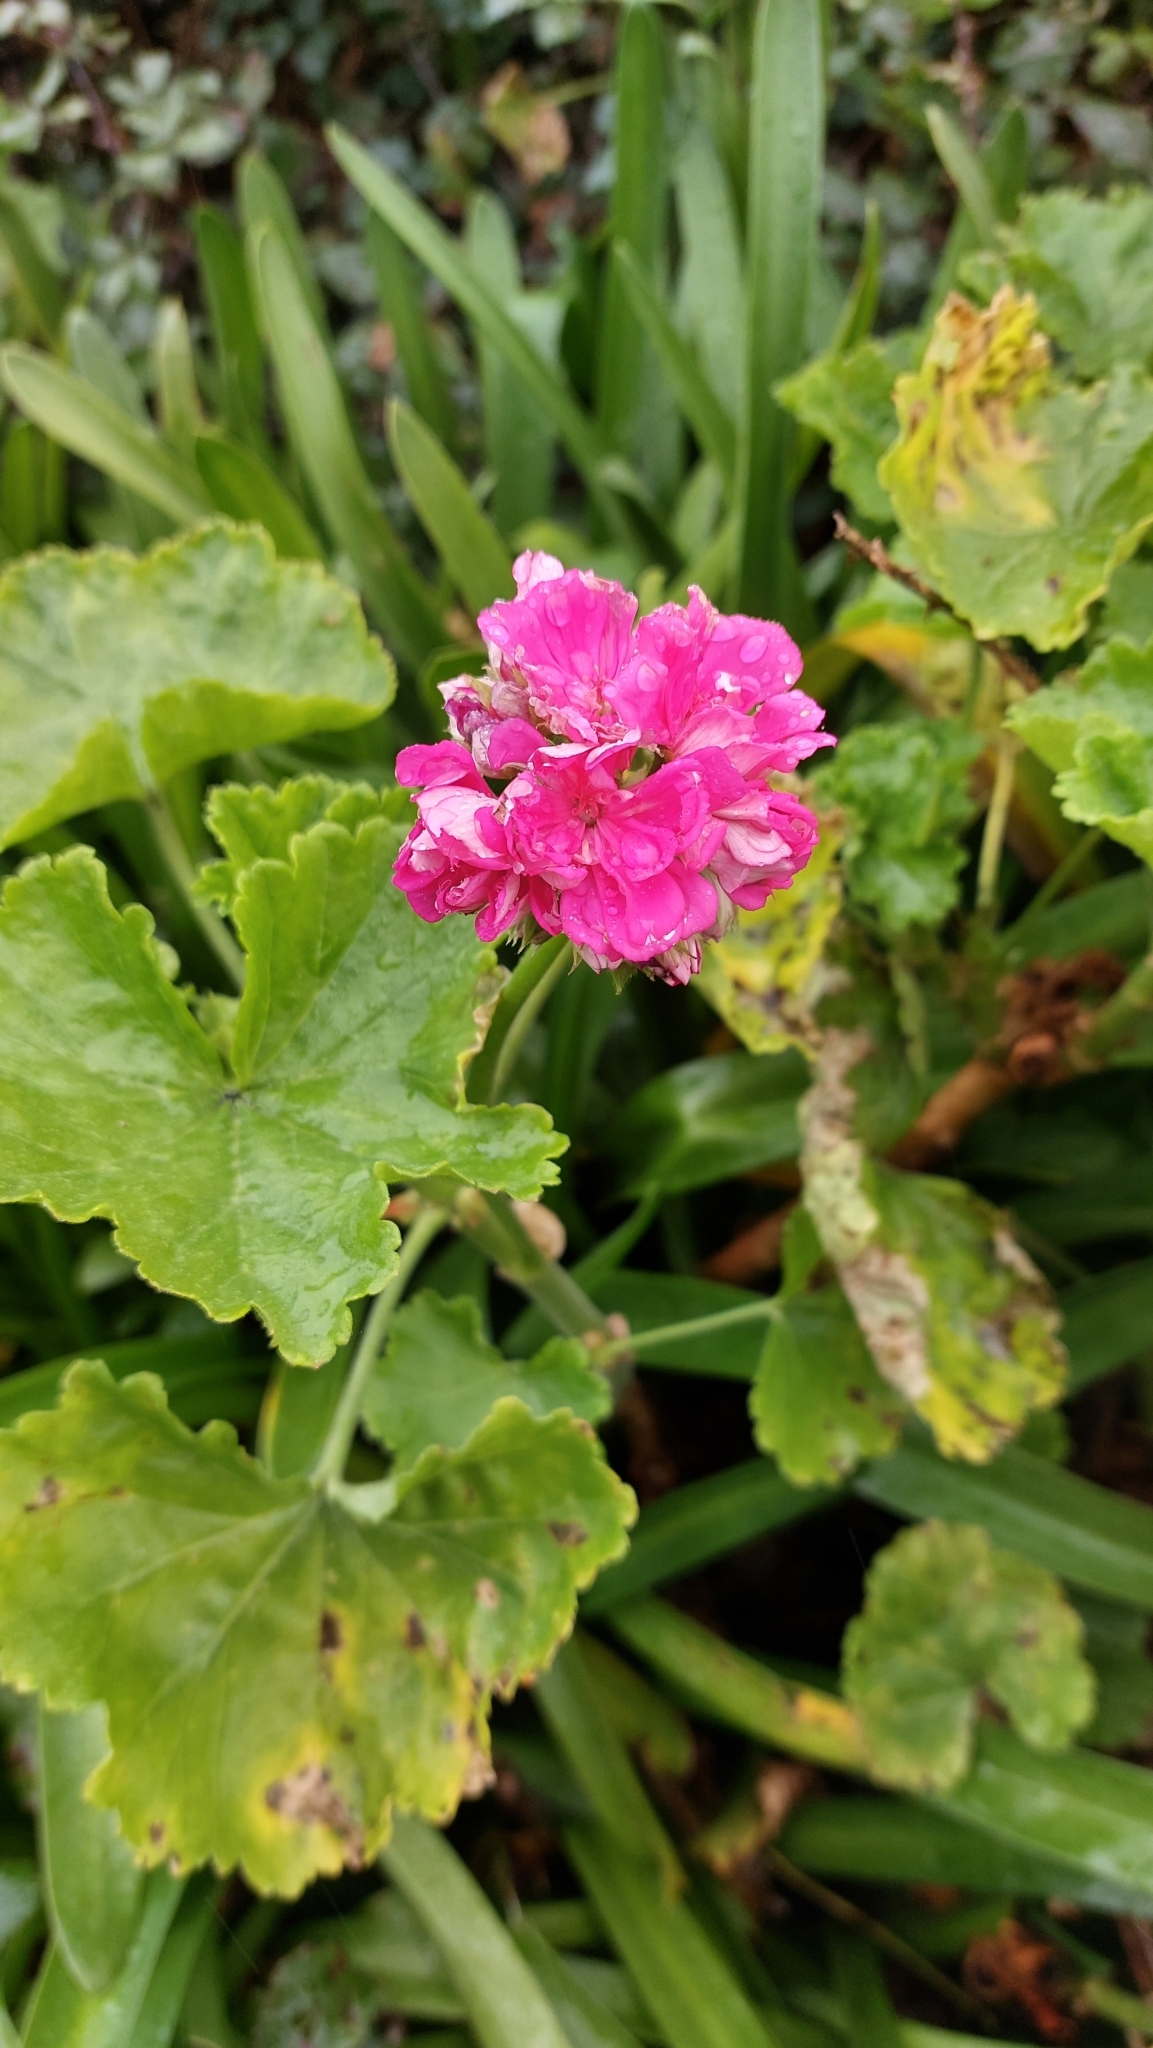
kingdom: Plantae
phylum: Tracheophyta
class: Magnoliopsida
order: Geraniales
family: Geraniaceae
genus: Pelargonium
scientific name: Pelargonium hybridum
